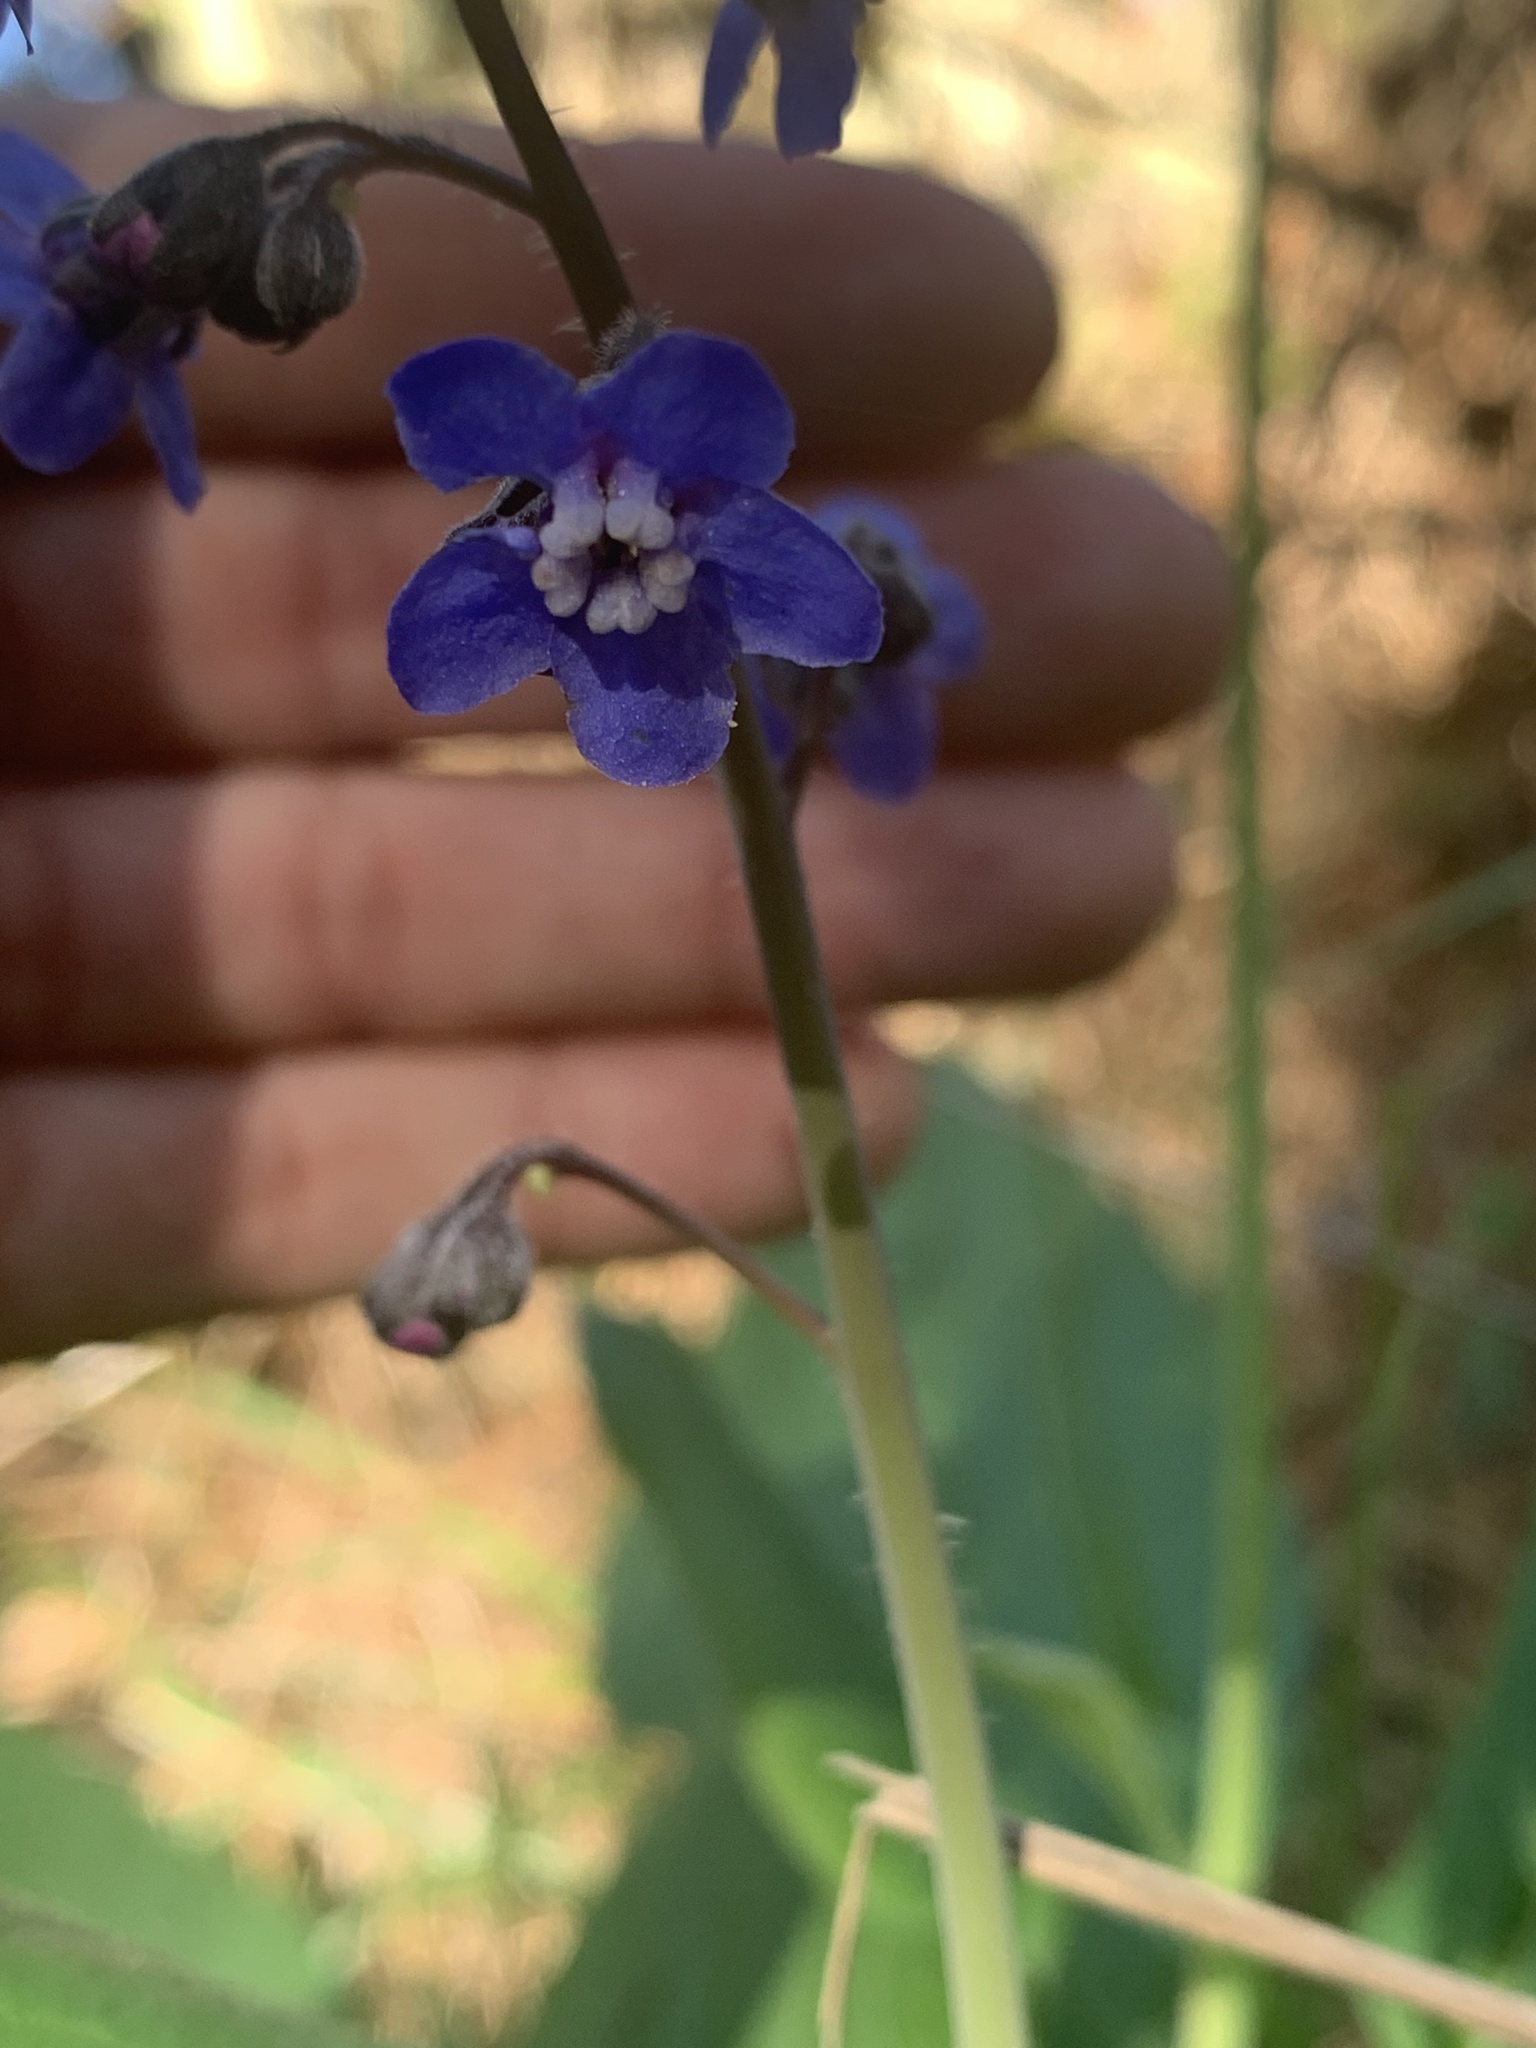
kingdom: Plantae
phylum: Tracheophyta
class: Magnoliopsida
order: Boraginales
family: Boraginaceae
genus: Adelinia
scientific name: Adelinia grande
